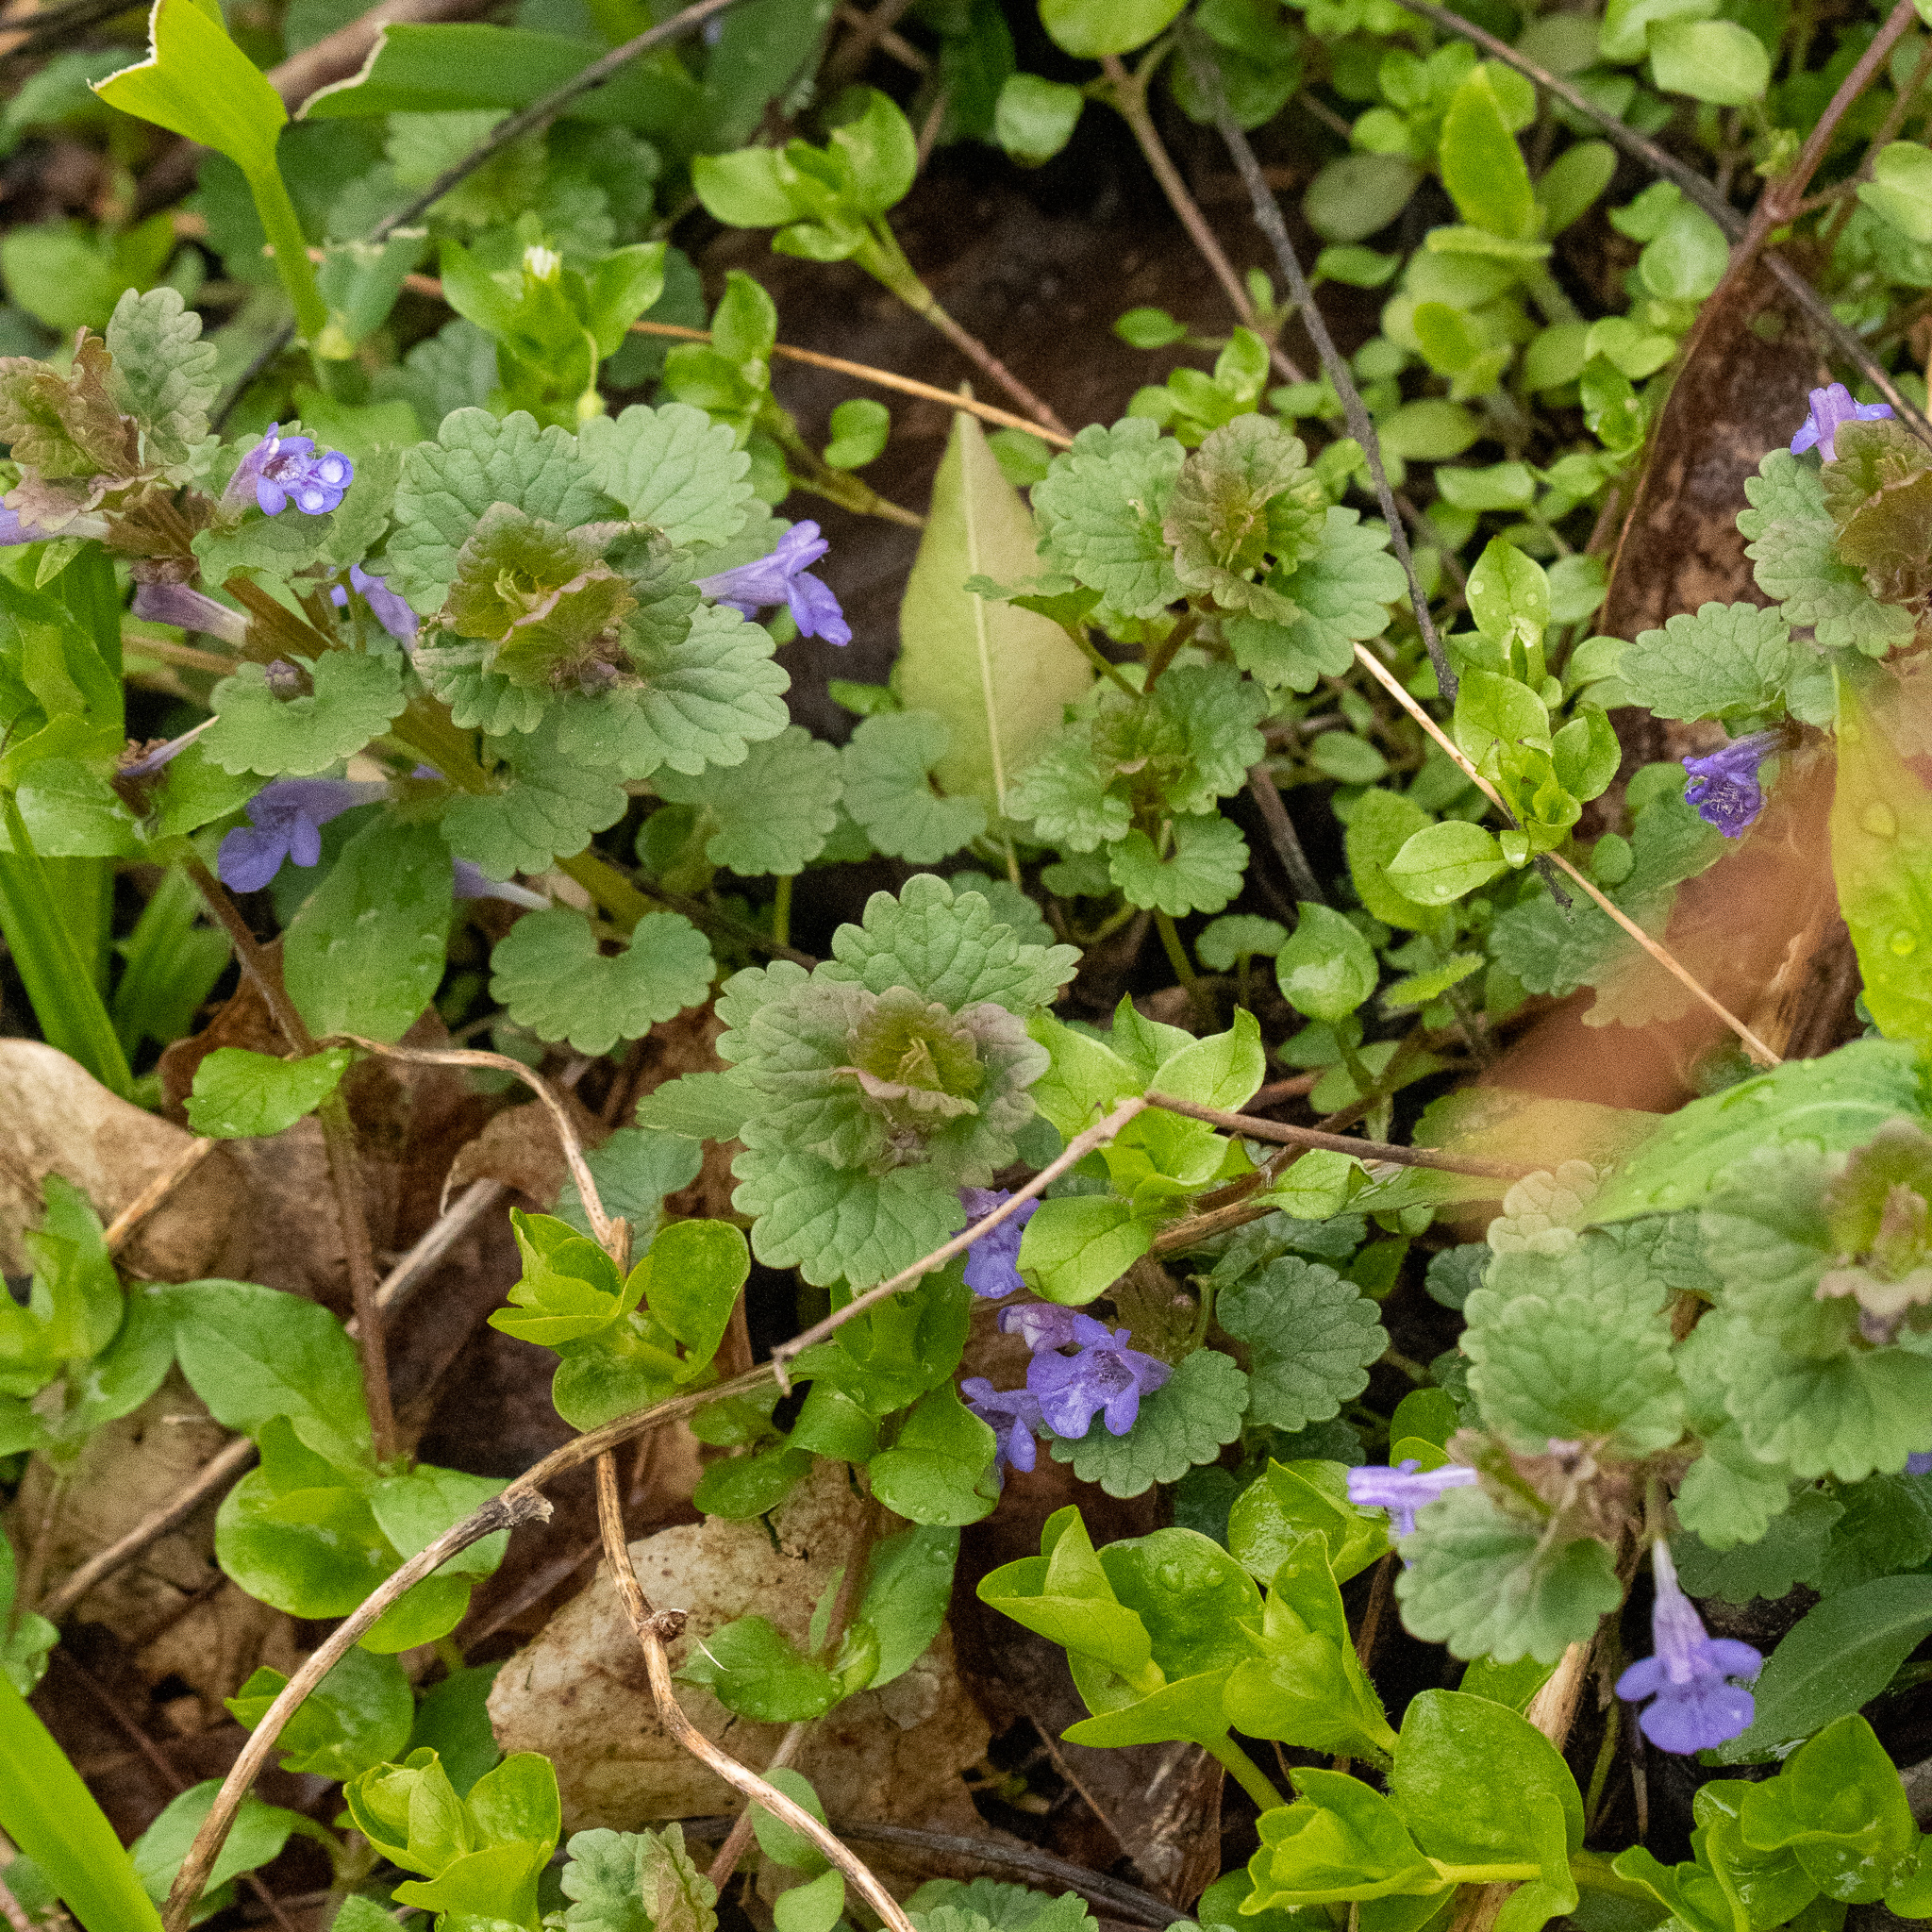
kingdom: Plantae
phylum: Tracheophyta
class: Magnoliopsida
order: Lamiales
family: Lamiaceae
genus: Glechoma
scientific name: Glechoma hederacea
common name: Ground ivy
